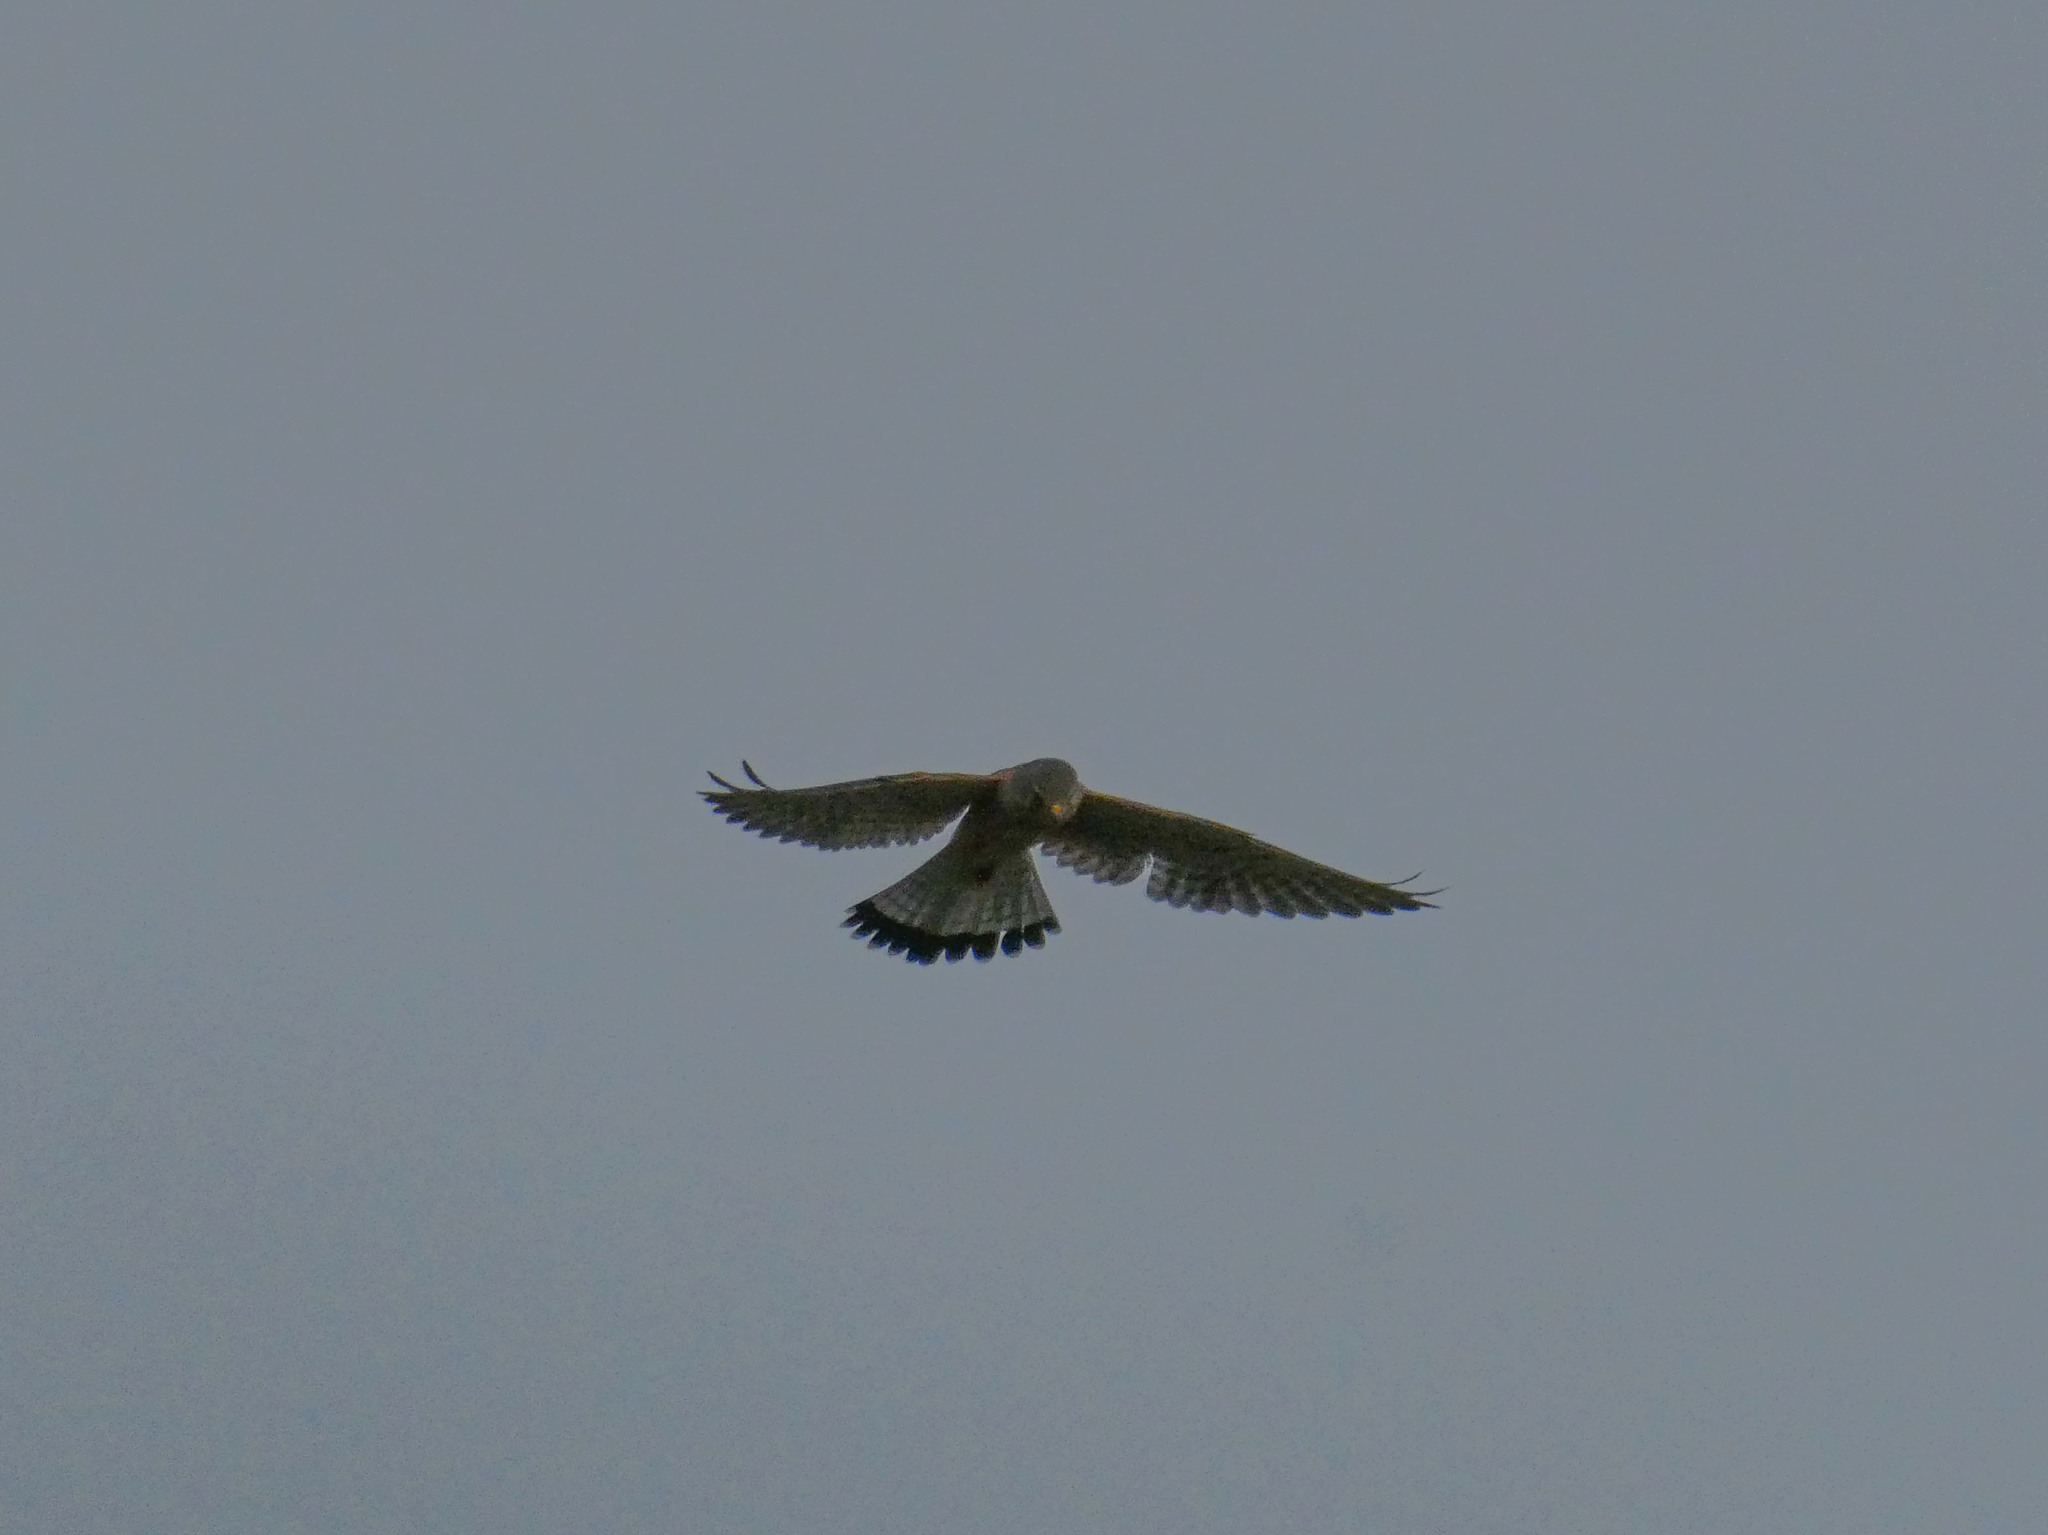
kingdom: Animalia
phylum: Chordata
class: Aves
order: Falconiformes
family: Falconidae
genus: Falco
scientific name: Falco tinnunculus
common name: Common kestrel
